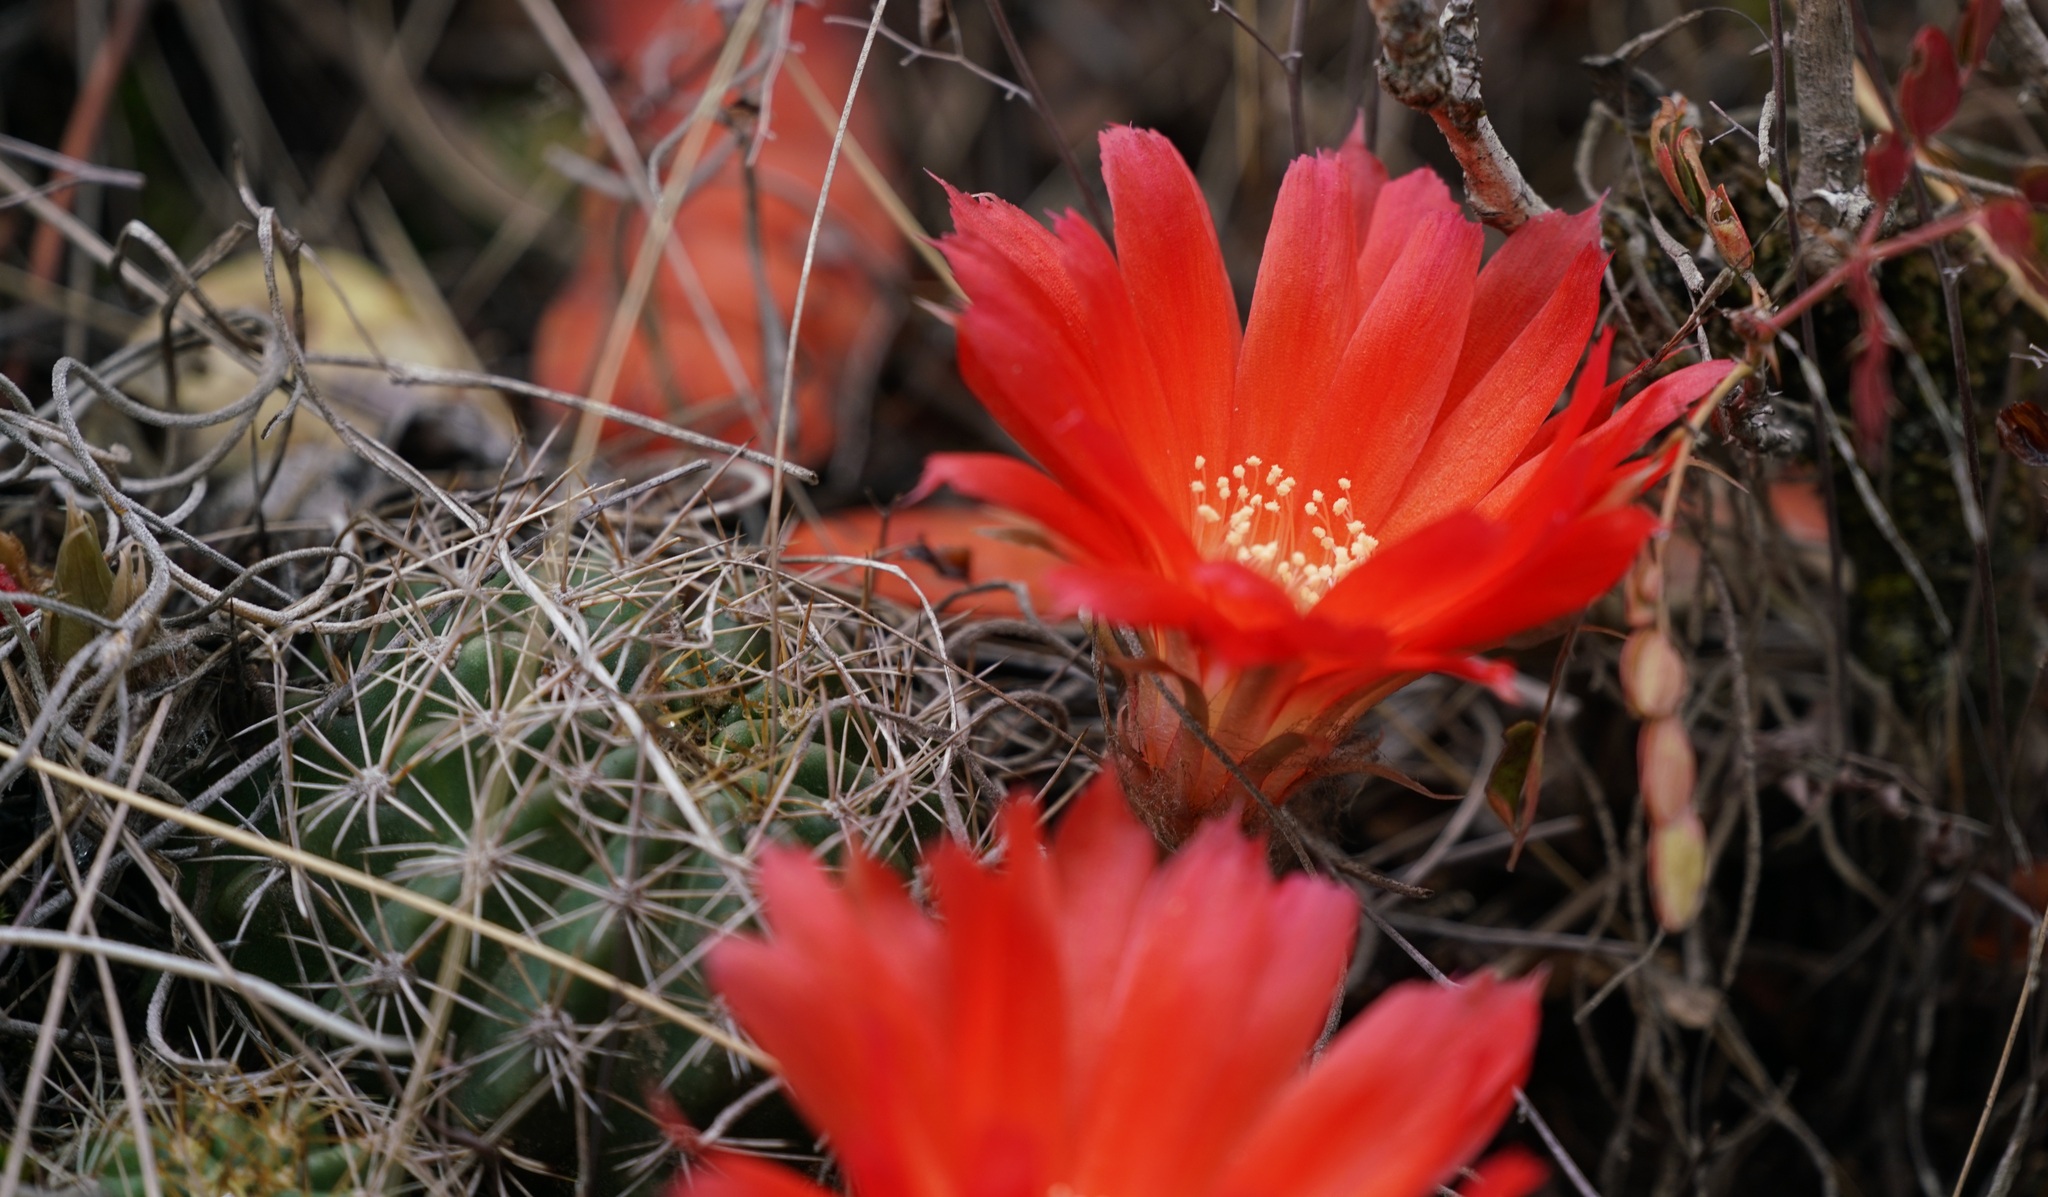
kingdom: Plantae
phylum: Tracheophyta
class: Magnoliopsida
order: Caryophyllales
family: Cactaceae
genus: Lobivia
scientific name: Lobivia hertrichiana
